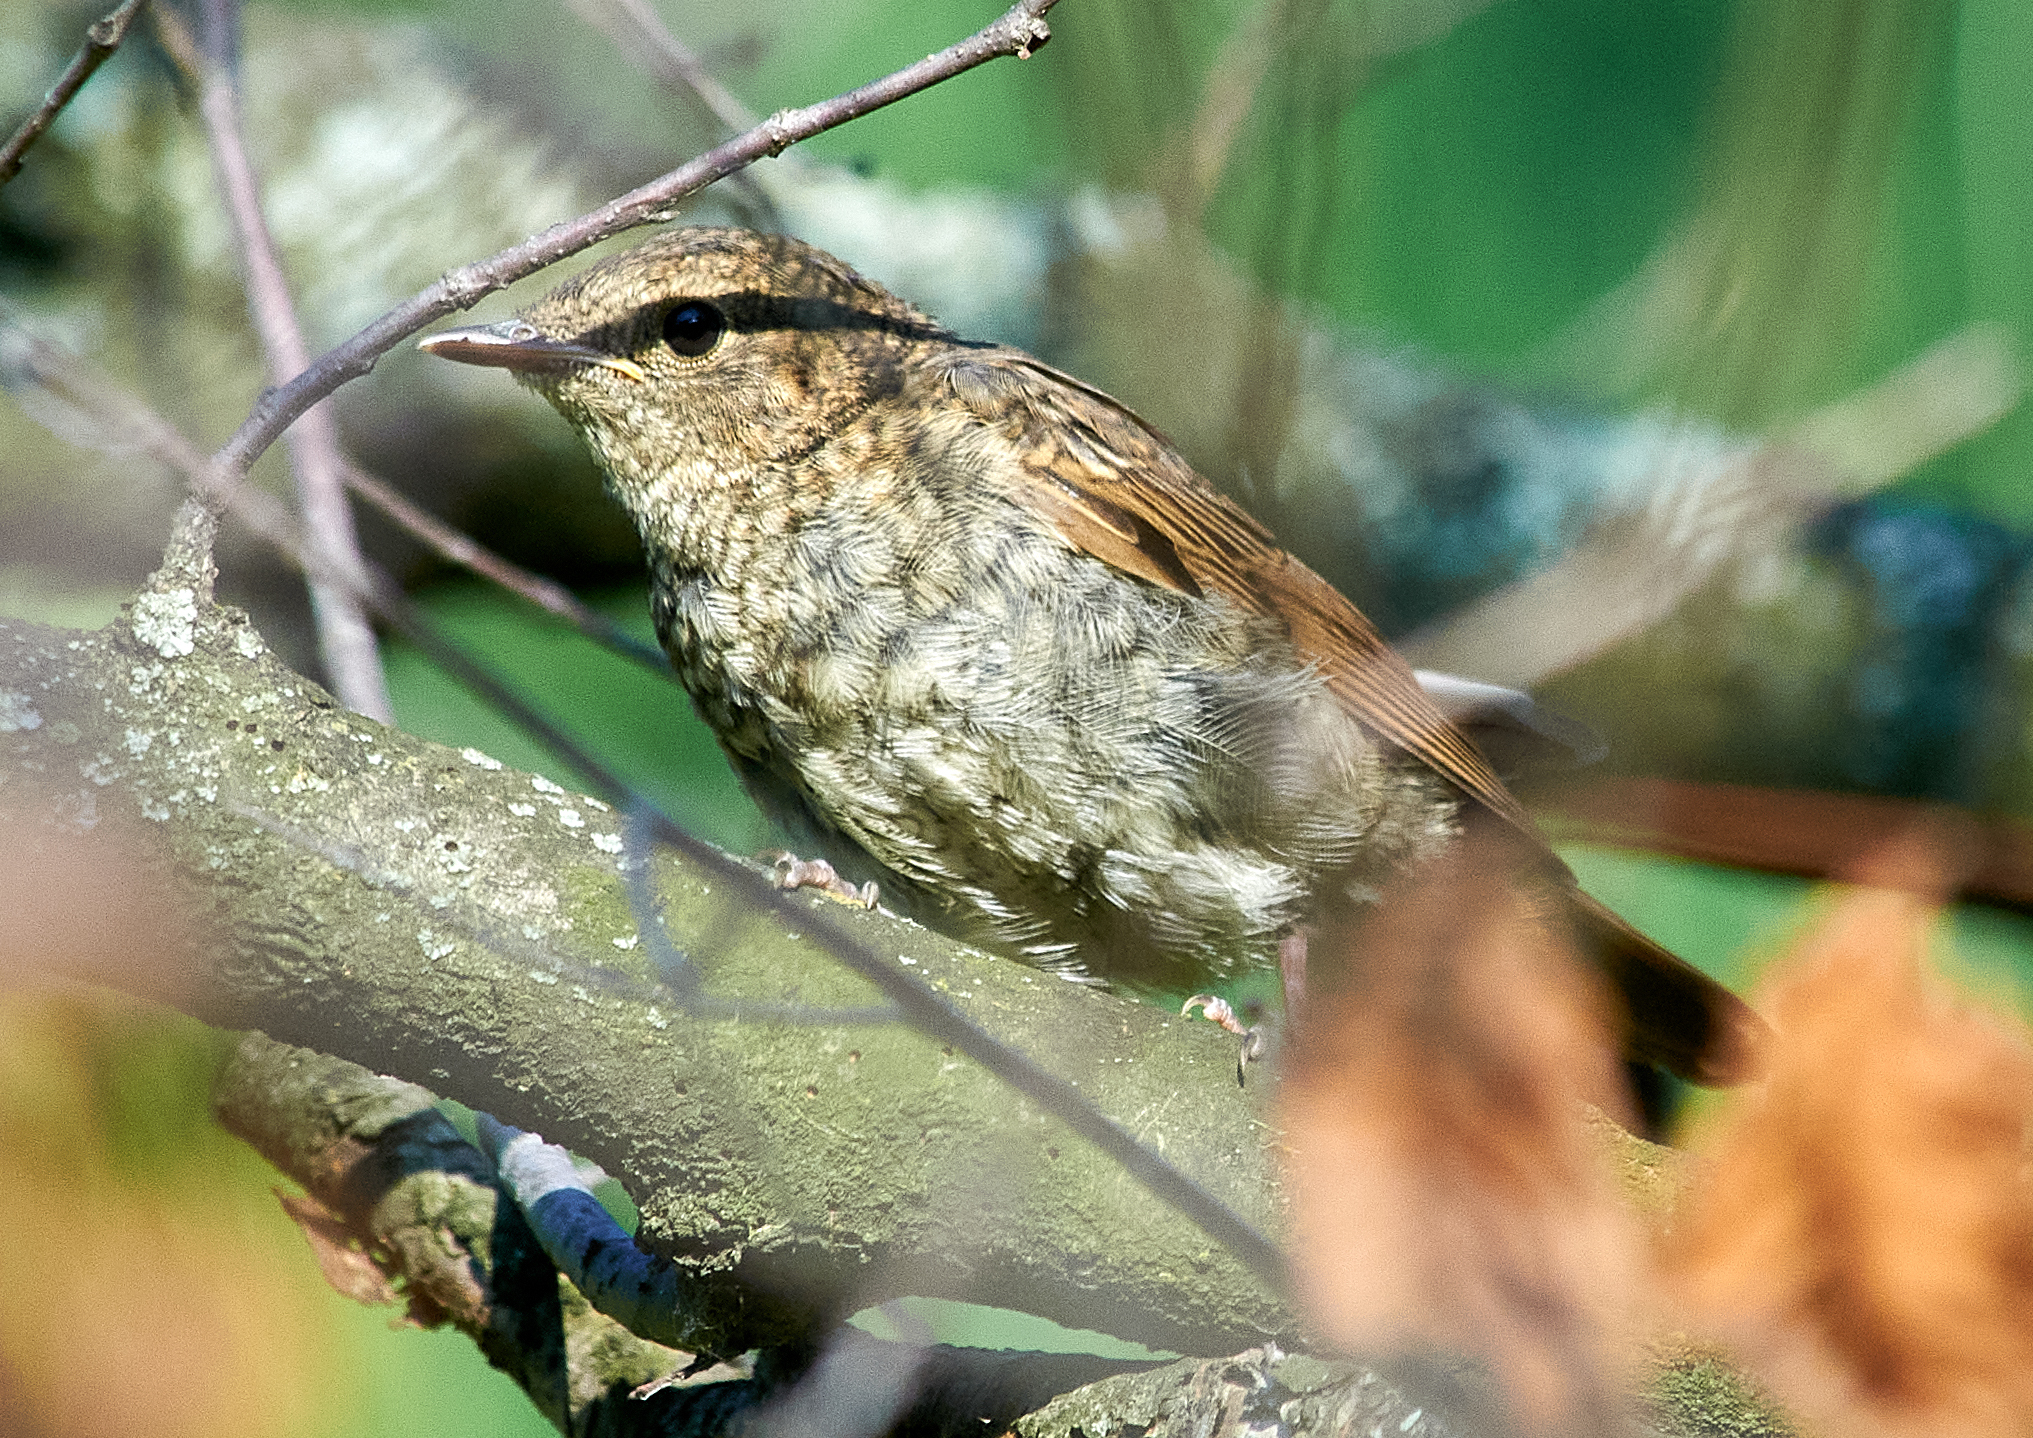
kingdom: Animalia
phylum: Chordata
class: Aves
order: Passeriformes
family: Muscicapidae
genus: Luscinia
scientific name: Luscinia luscinia
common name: Thrush nightingale
